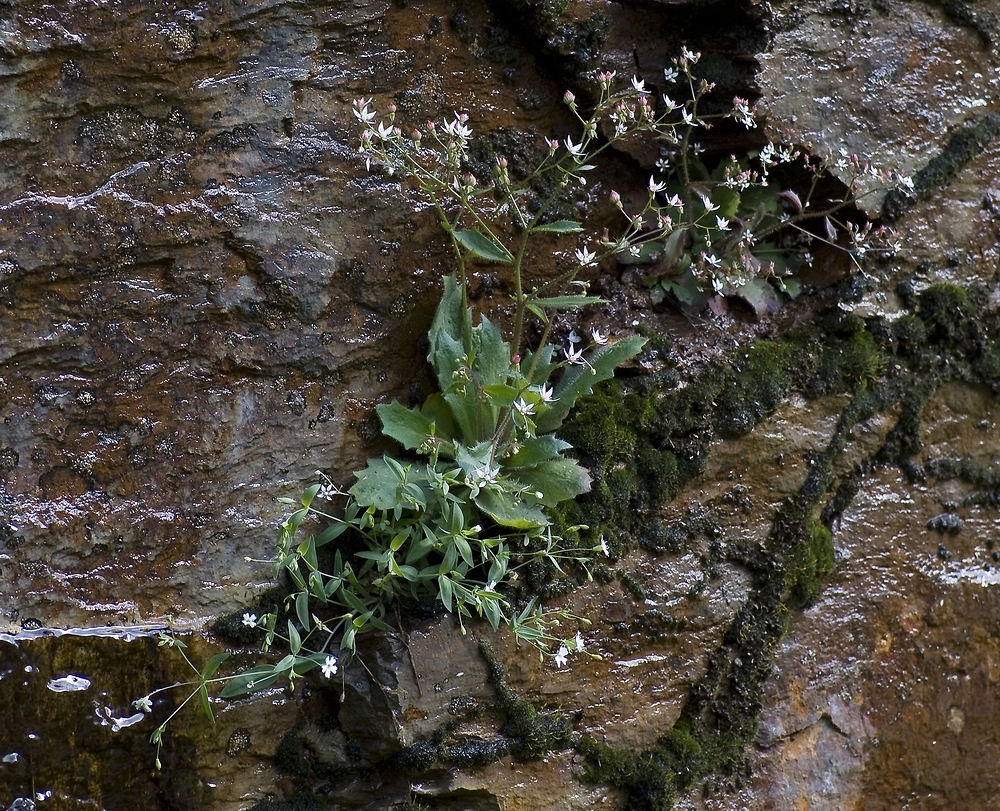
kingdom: Plantae
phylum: Tracheophyta
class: Magnoliopsida
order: Saxifragales
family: Saxifragaceae
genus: Micranthes
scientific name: Micranthes clusii
